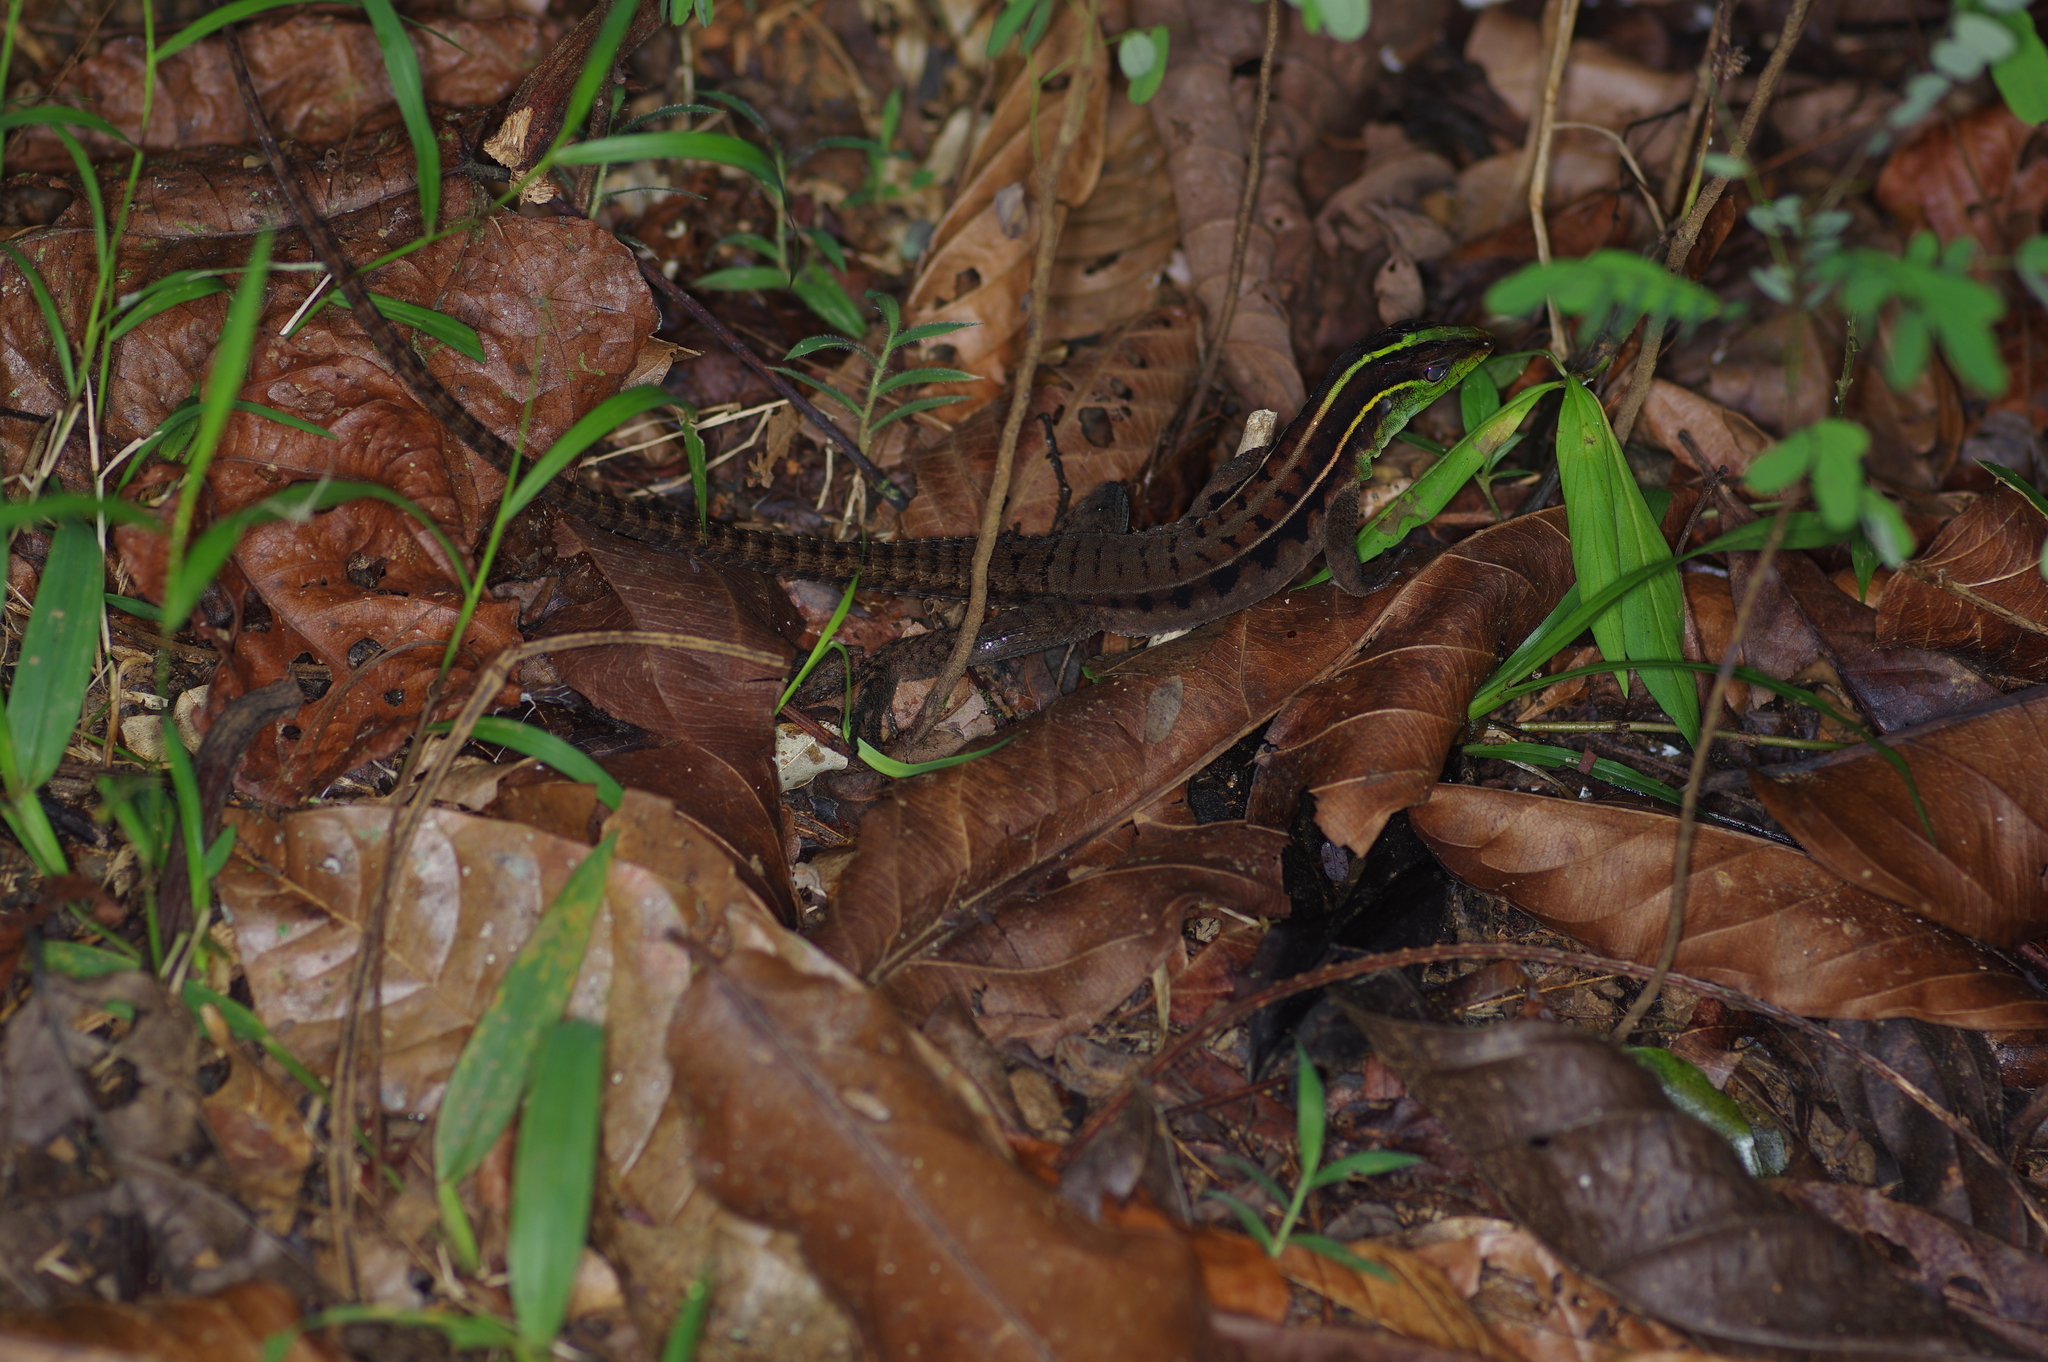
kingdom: Animalia
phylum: Chordata
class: Squamata
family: Teiidae
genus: Kentropyx
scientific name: Kentropyx calcarata
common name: Striped forest whiptail
